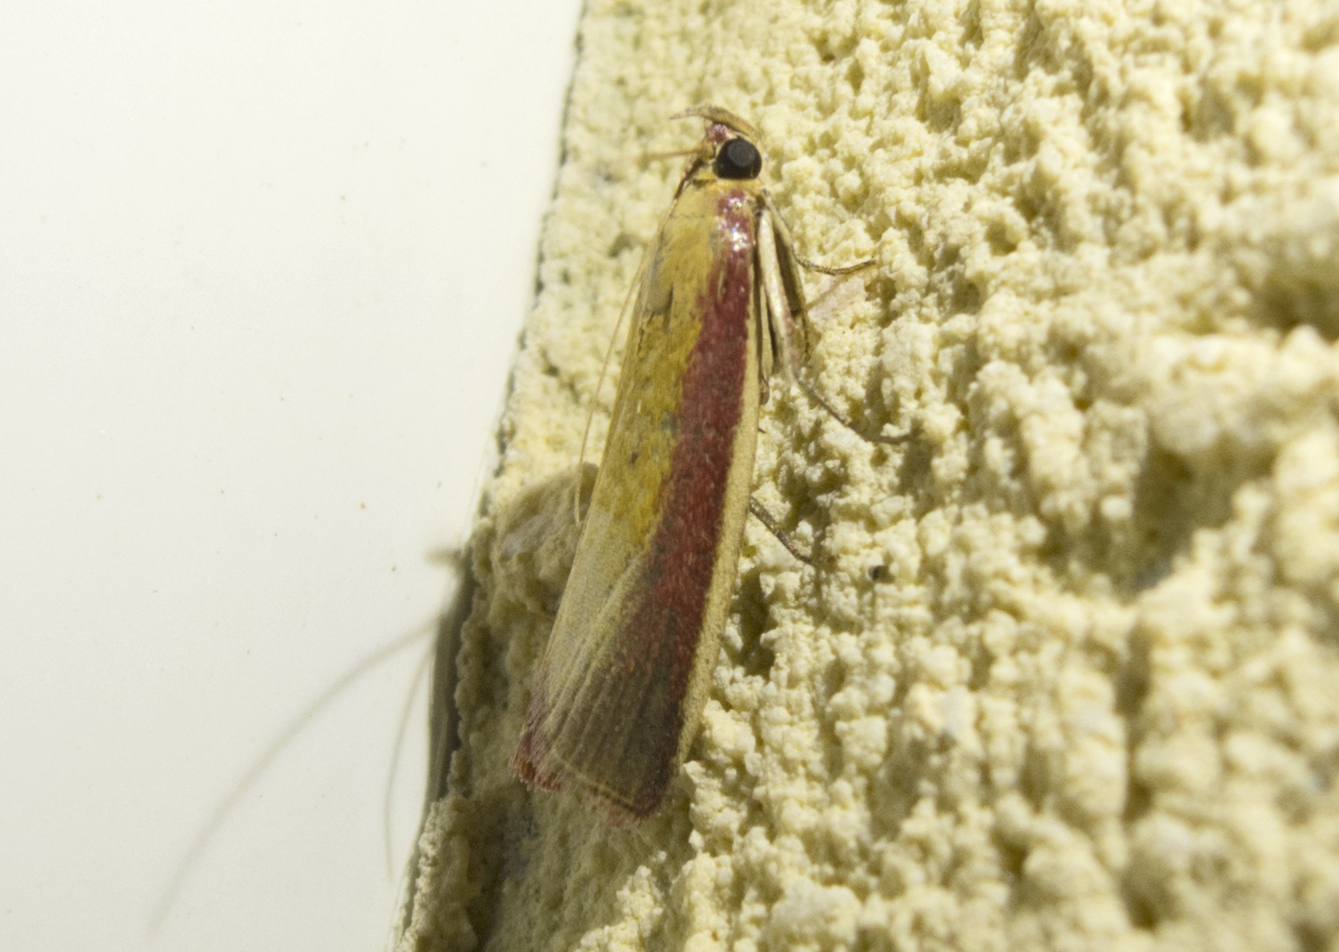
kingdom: Animalia
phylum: Arthropoda
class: Insecta
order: Lepidoptera
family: Pyralidae
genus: Oncocera
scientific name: Oncocera semirubella
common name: Rosy-striped knot-horn
